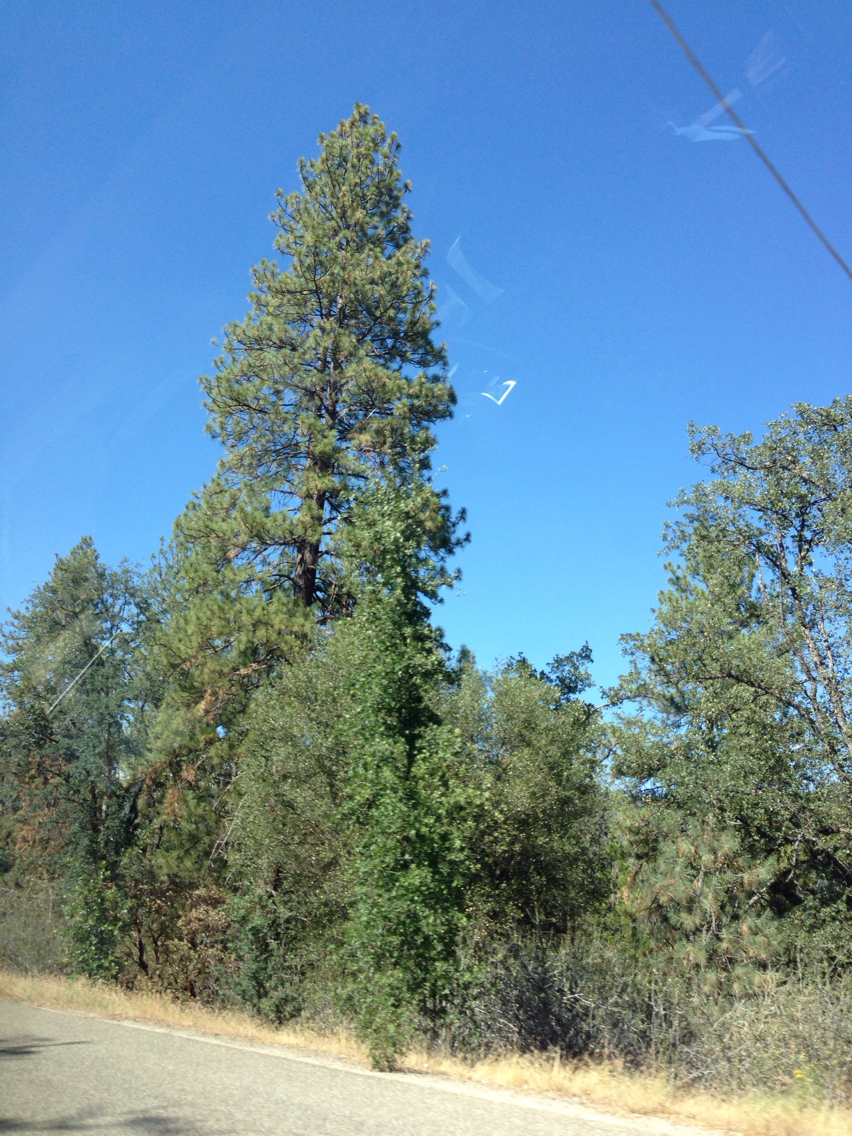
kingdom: Plantae
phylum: Tracheophyta
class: Pinopsida
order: Pinales
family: Pinaceae
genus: Pinus
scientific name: Pinus ponderosa
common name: Western yellow-pine
